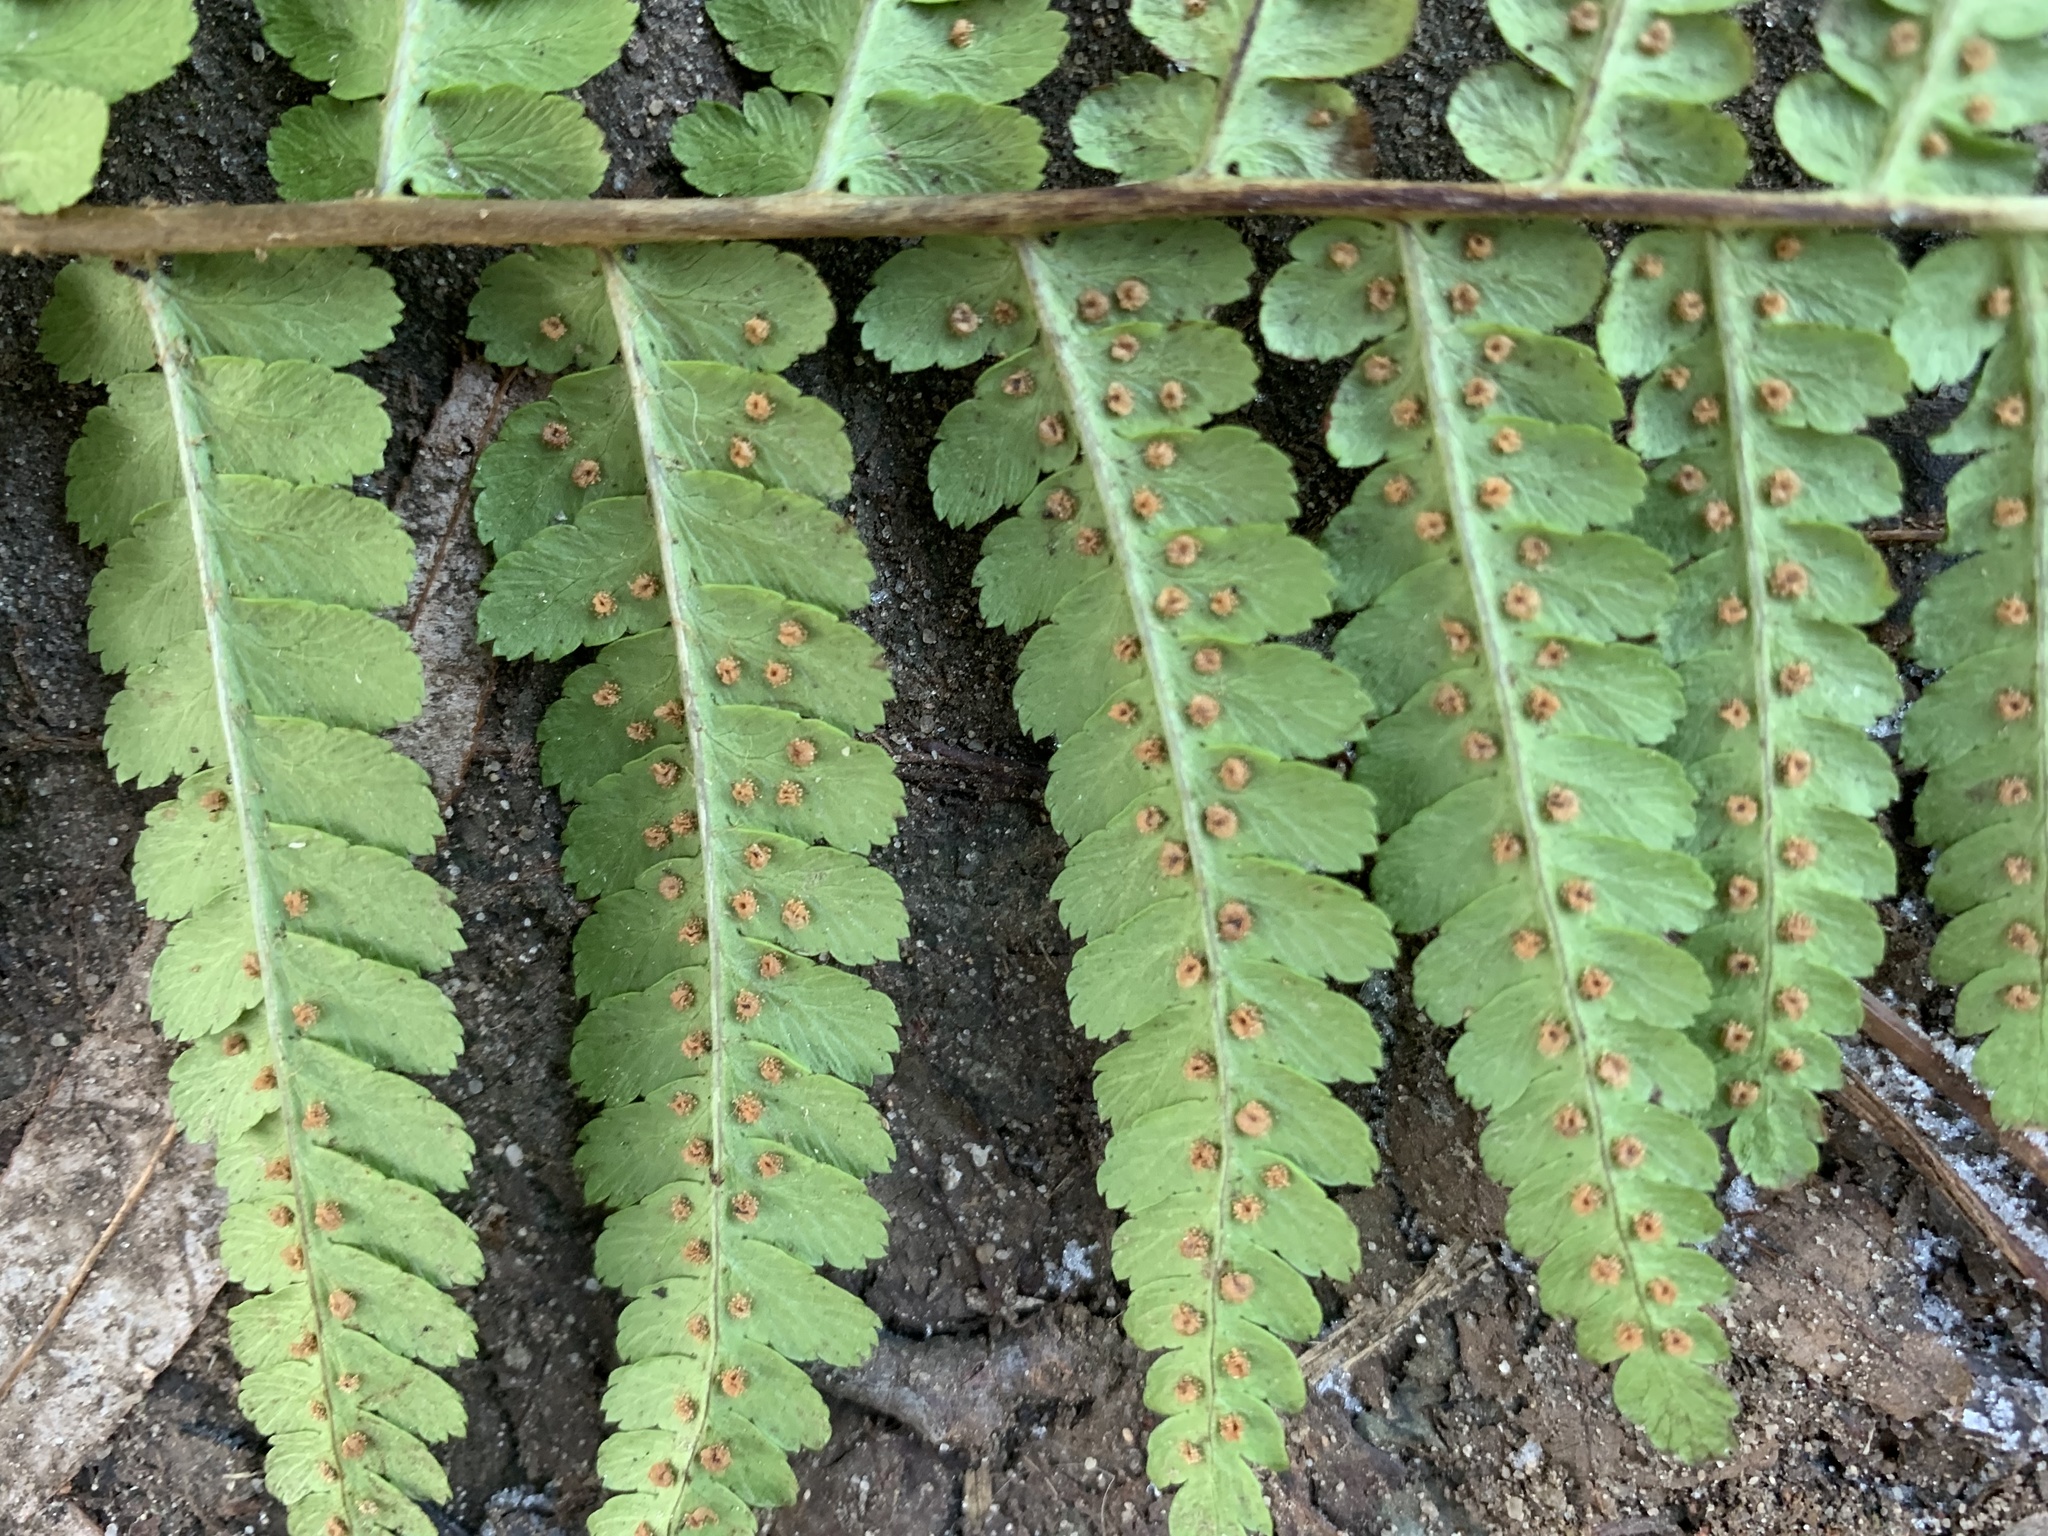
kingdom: Plantae
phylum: Tracheophyta
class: Polypodiopsida
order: Polypodiales
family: Dryopteridaceae
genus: Dryopteris
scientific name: Dryopteris filix-mas
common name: Male fern
